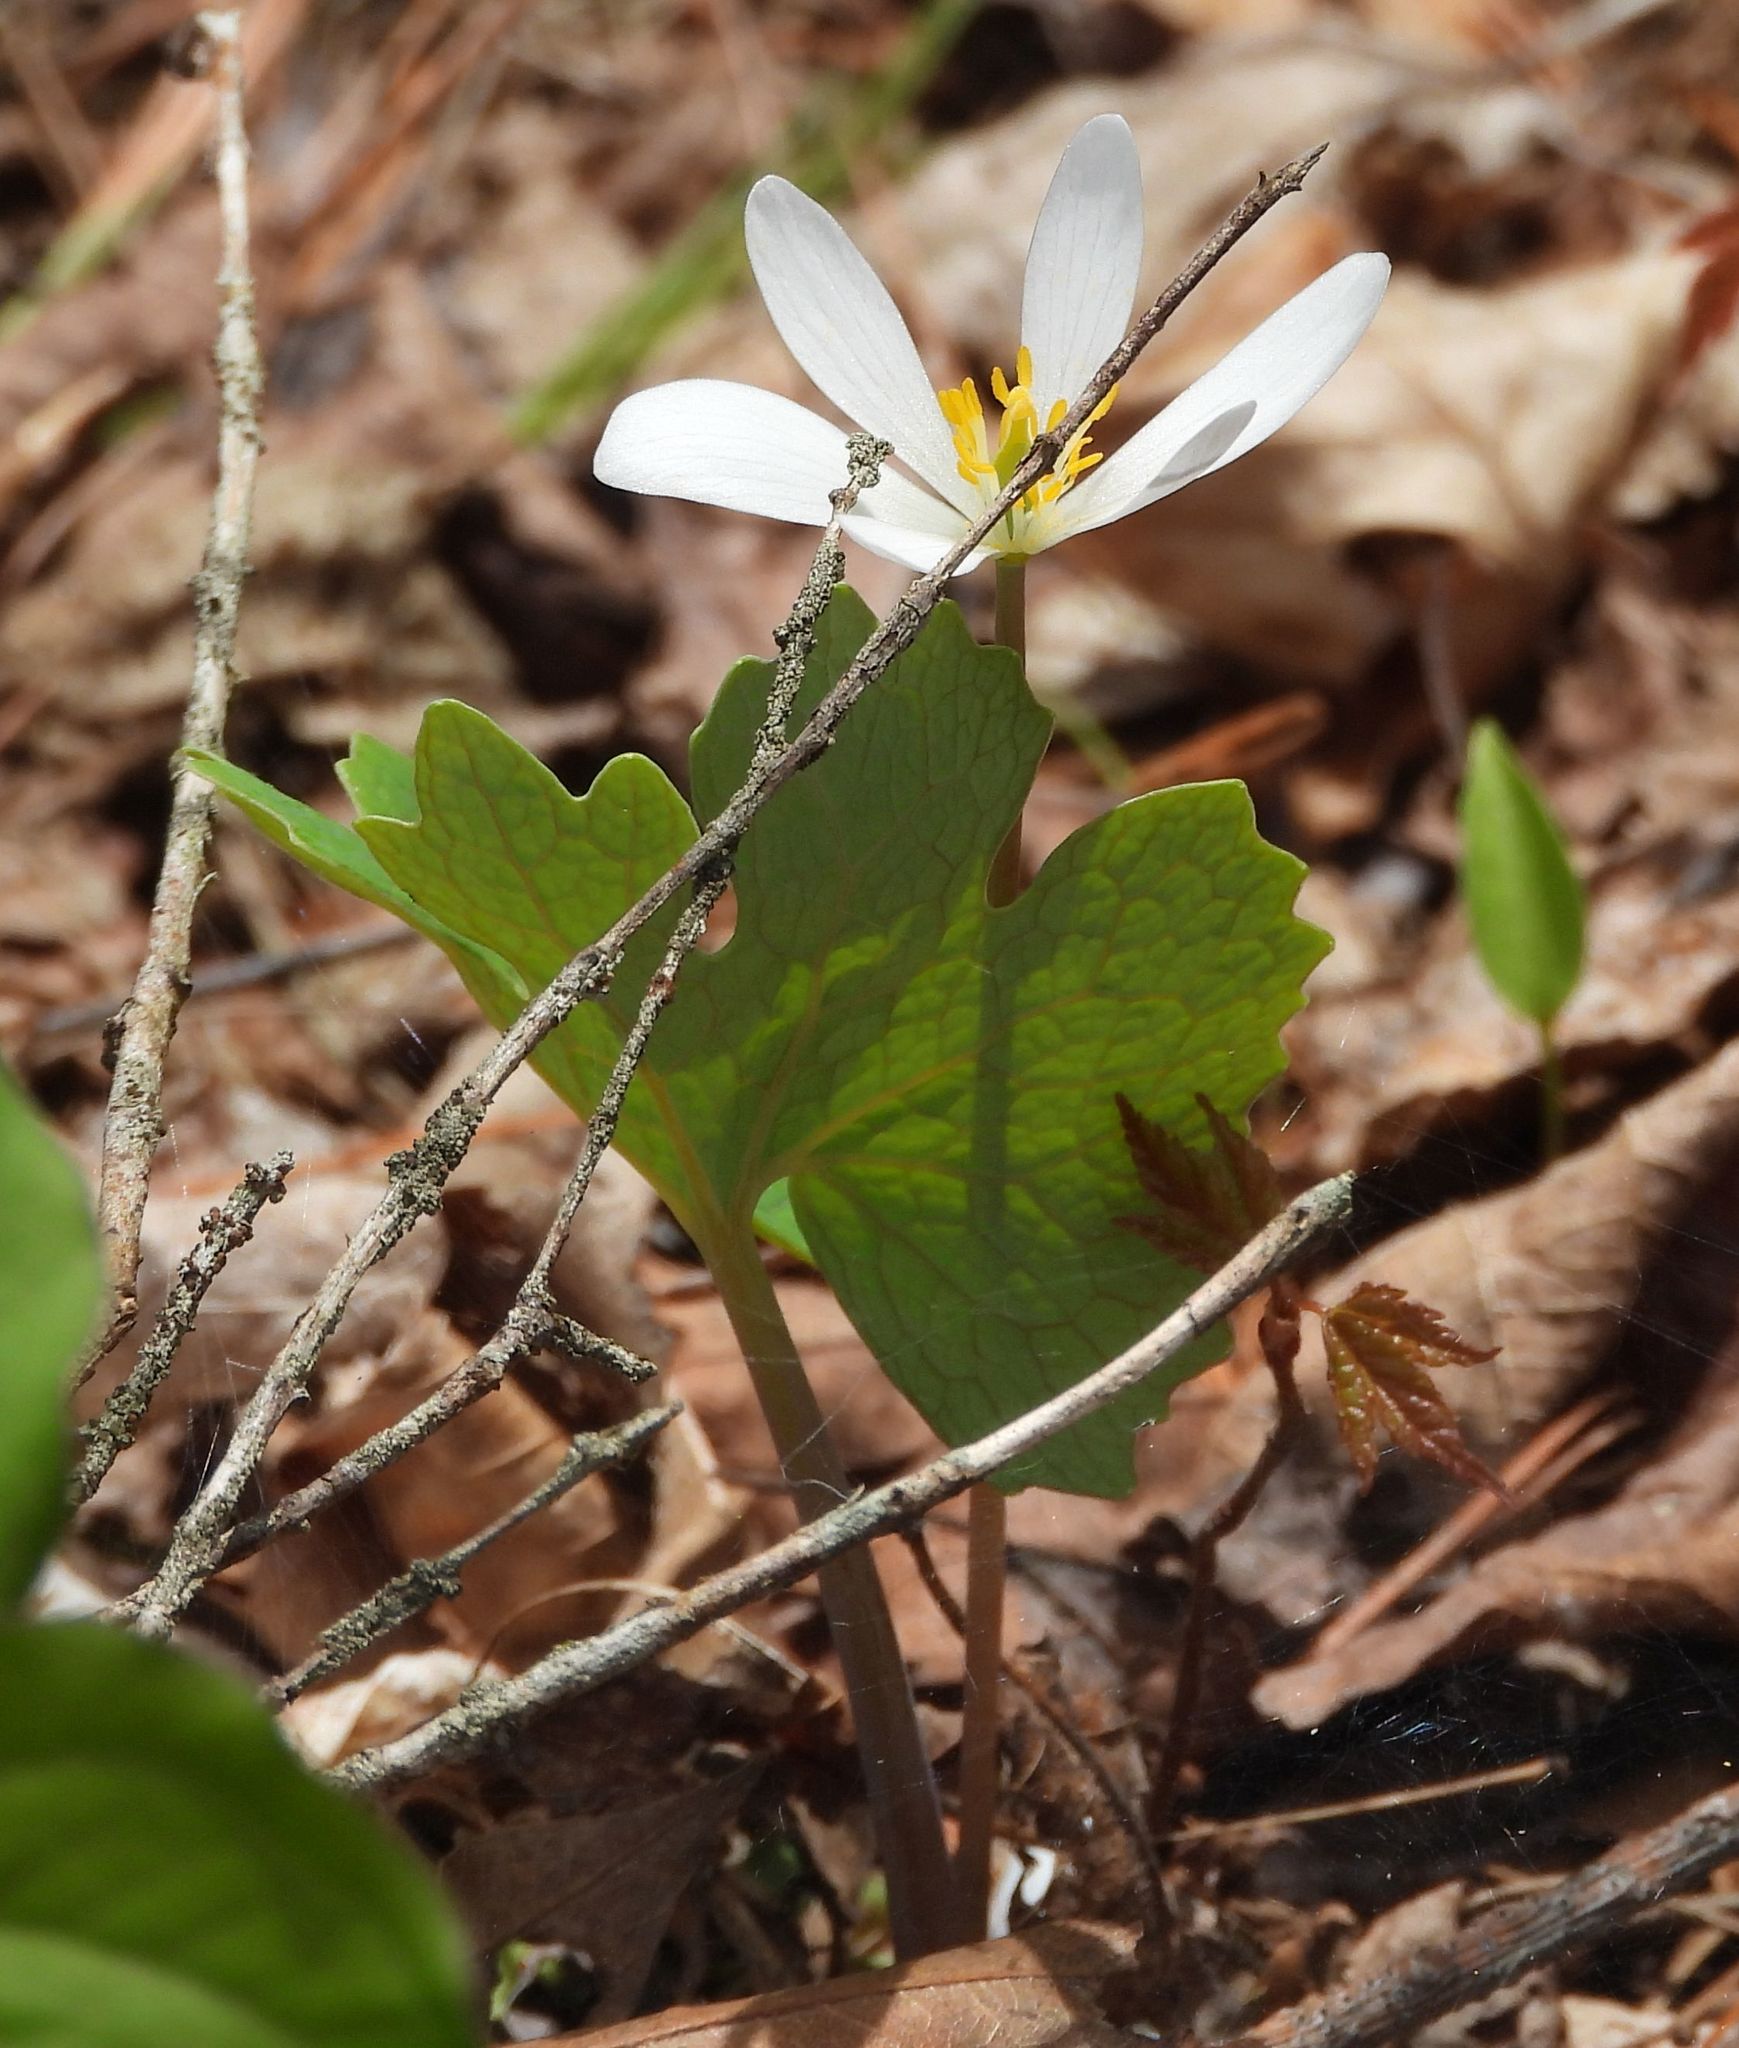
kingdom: Plantae
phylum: Tracheophyta
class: Magnoliopsida
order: Ranunculales
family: Papaveraceae
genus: Sanguinaria
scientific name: Sanguinaria canadensis
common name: Bloodroot
